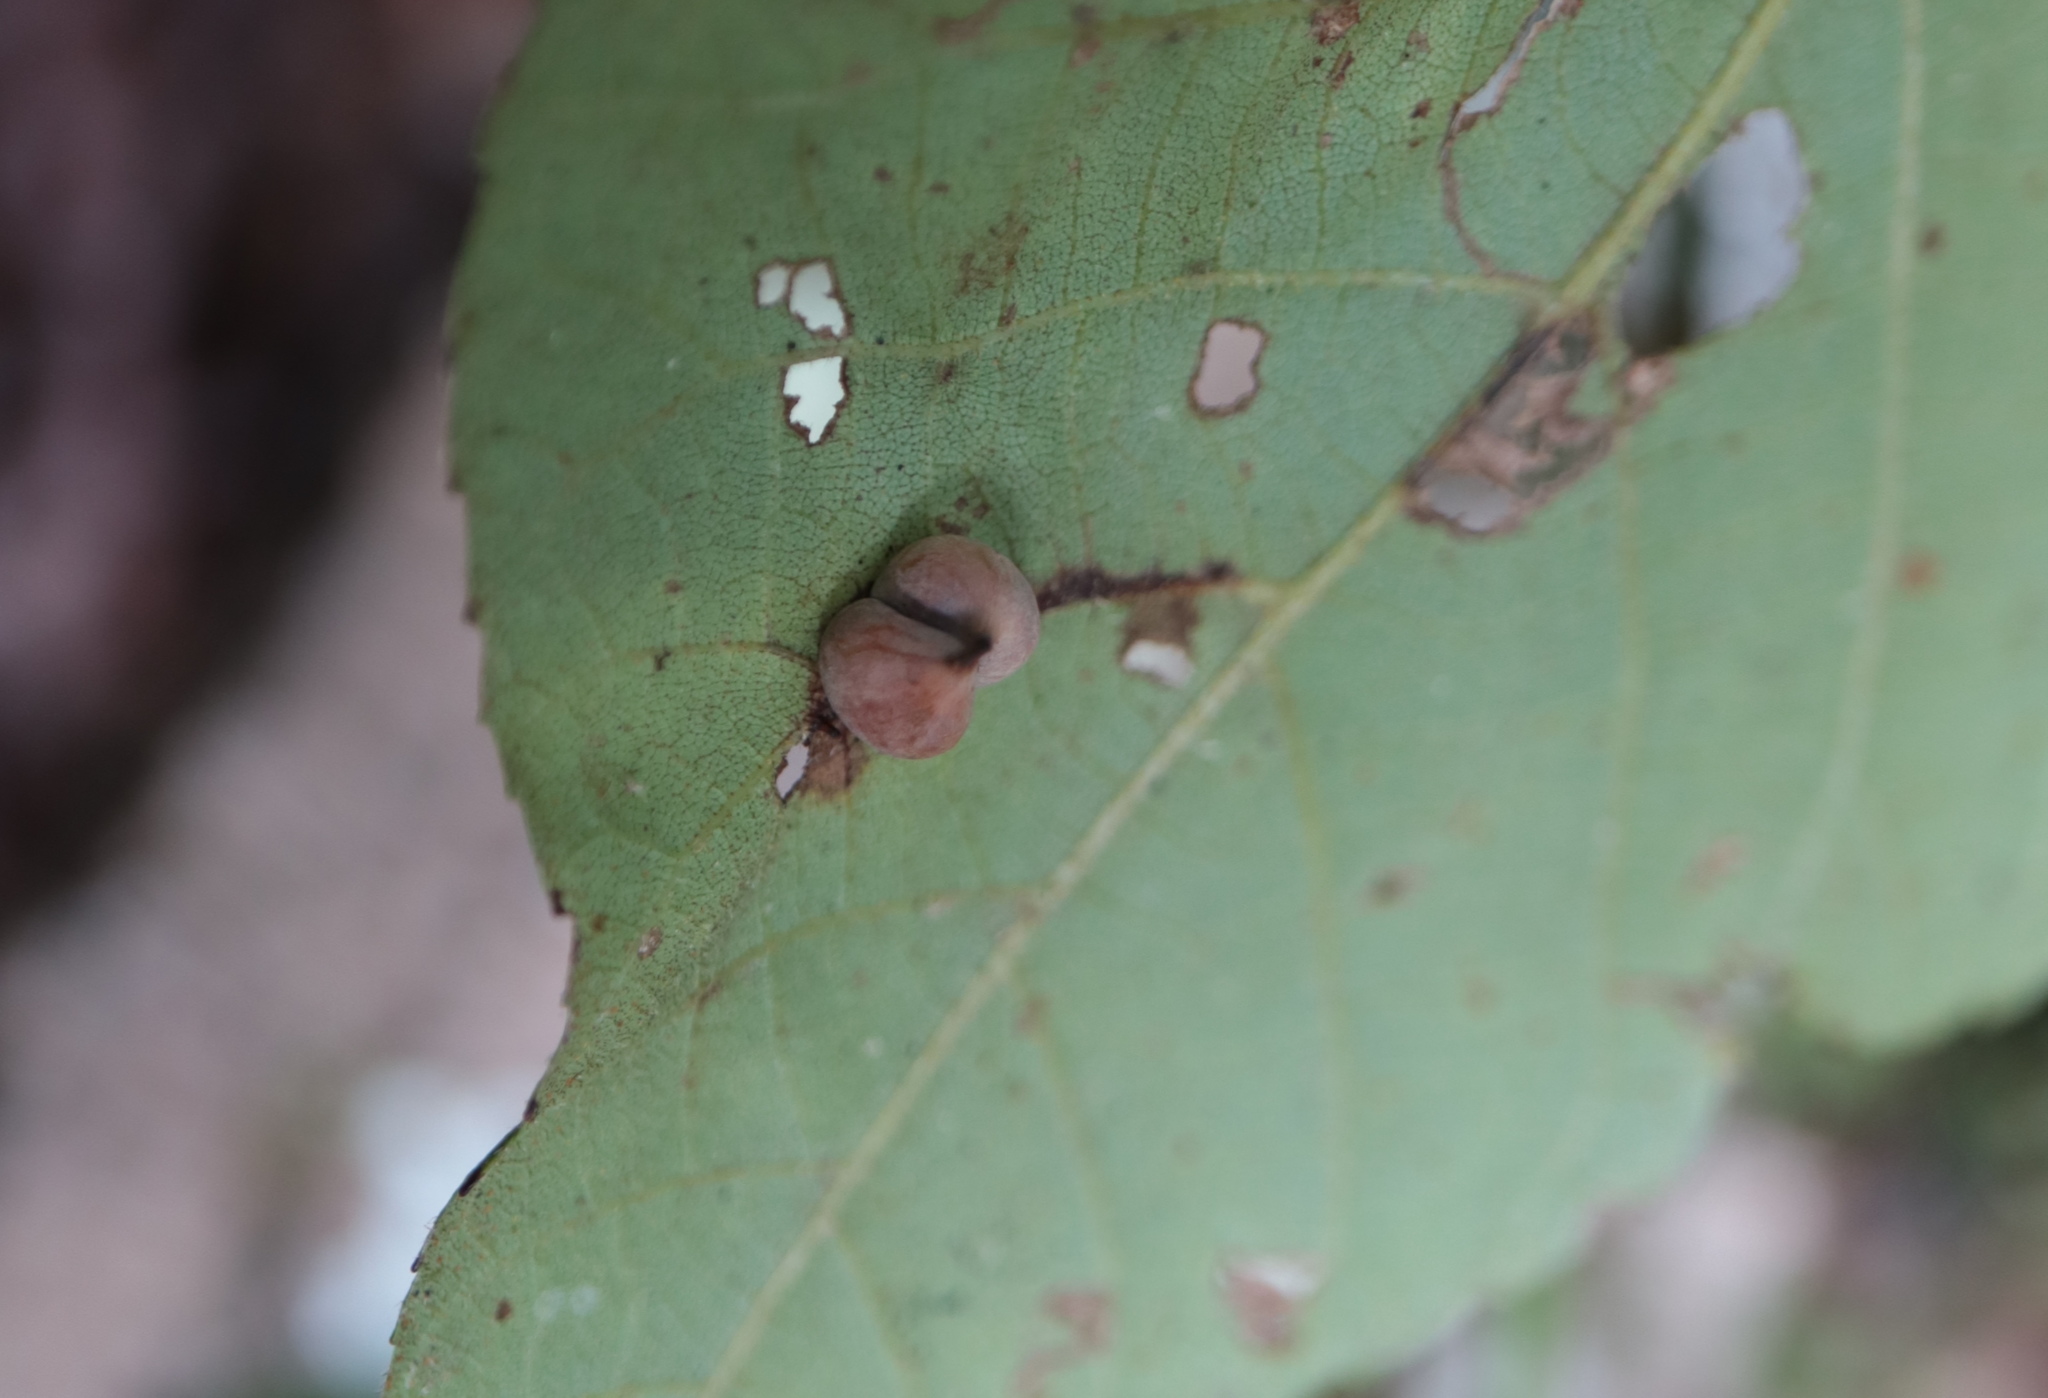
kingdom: Animalia
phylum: Arthropoda
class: Insecta
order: Diptera
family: Cecidomyiidae
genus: Caryomyia
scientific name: Caryomyia caryaecola
